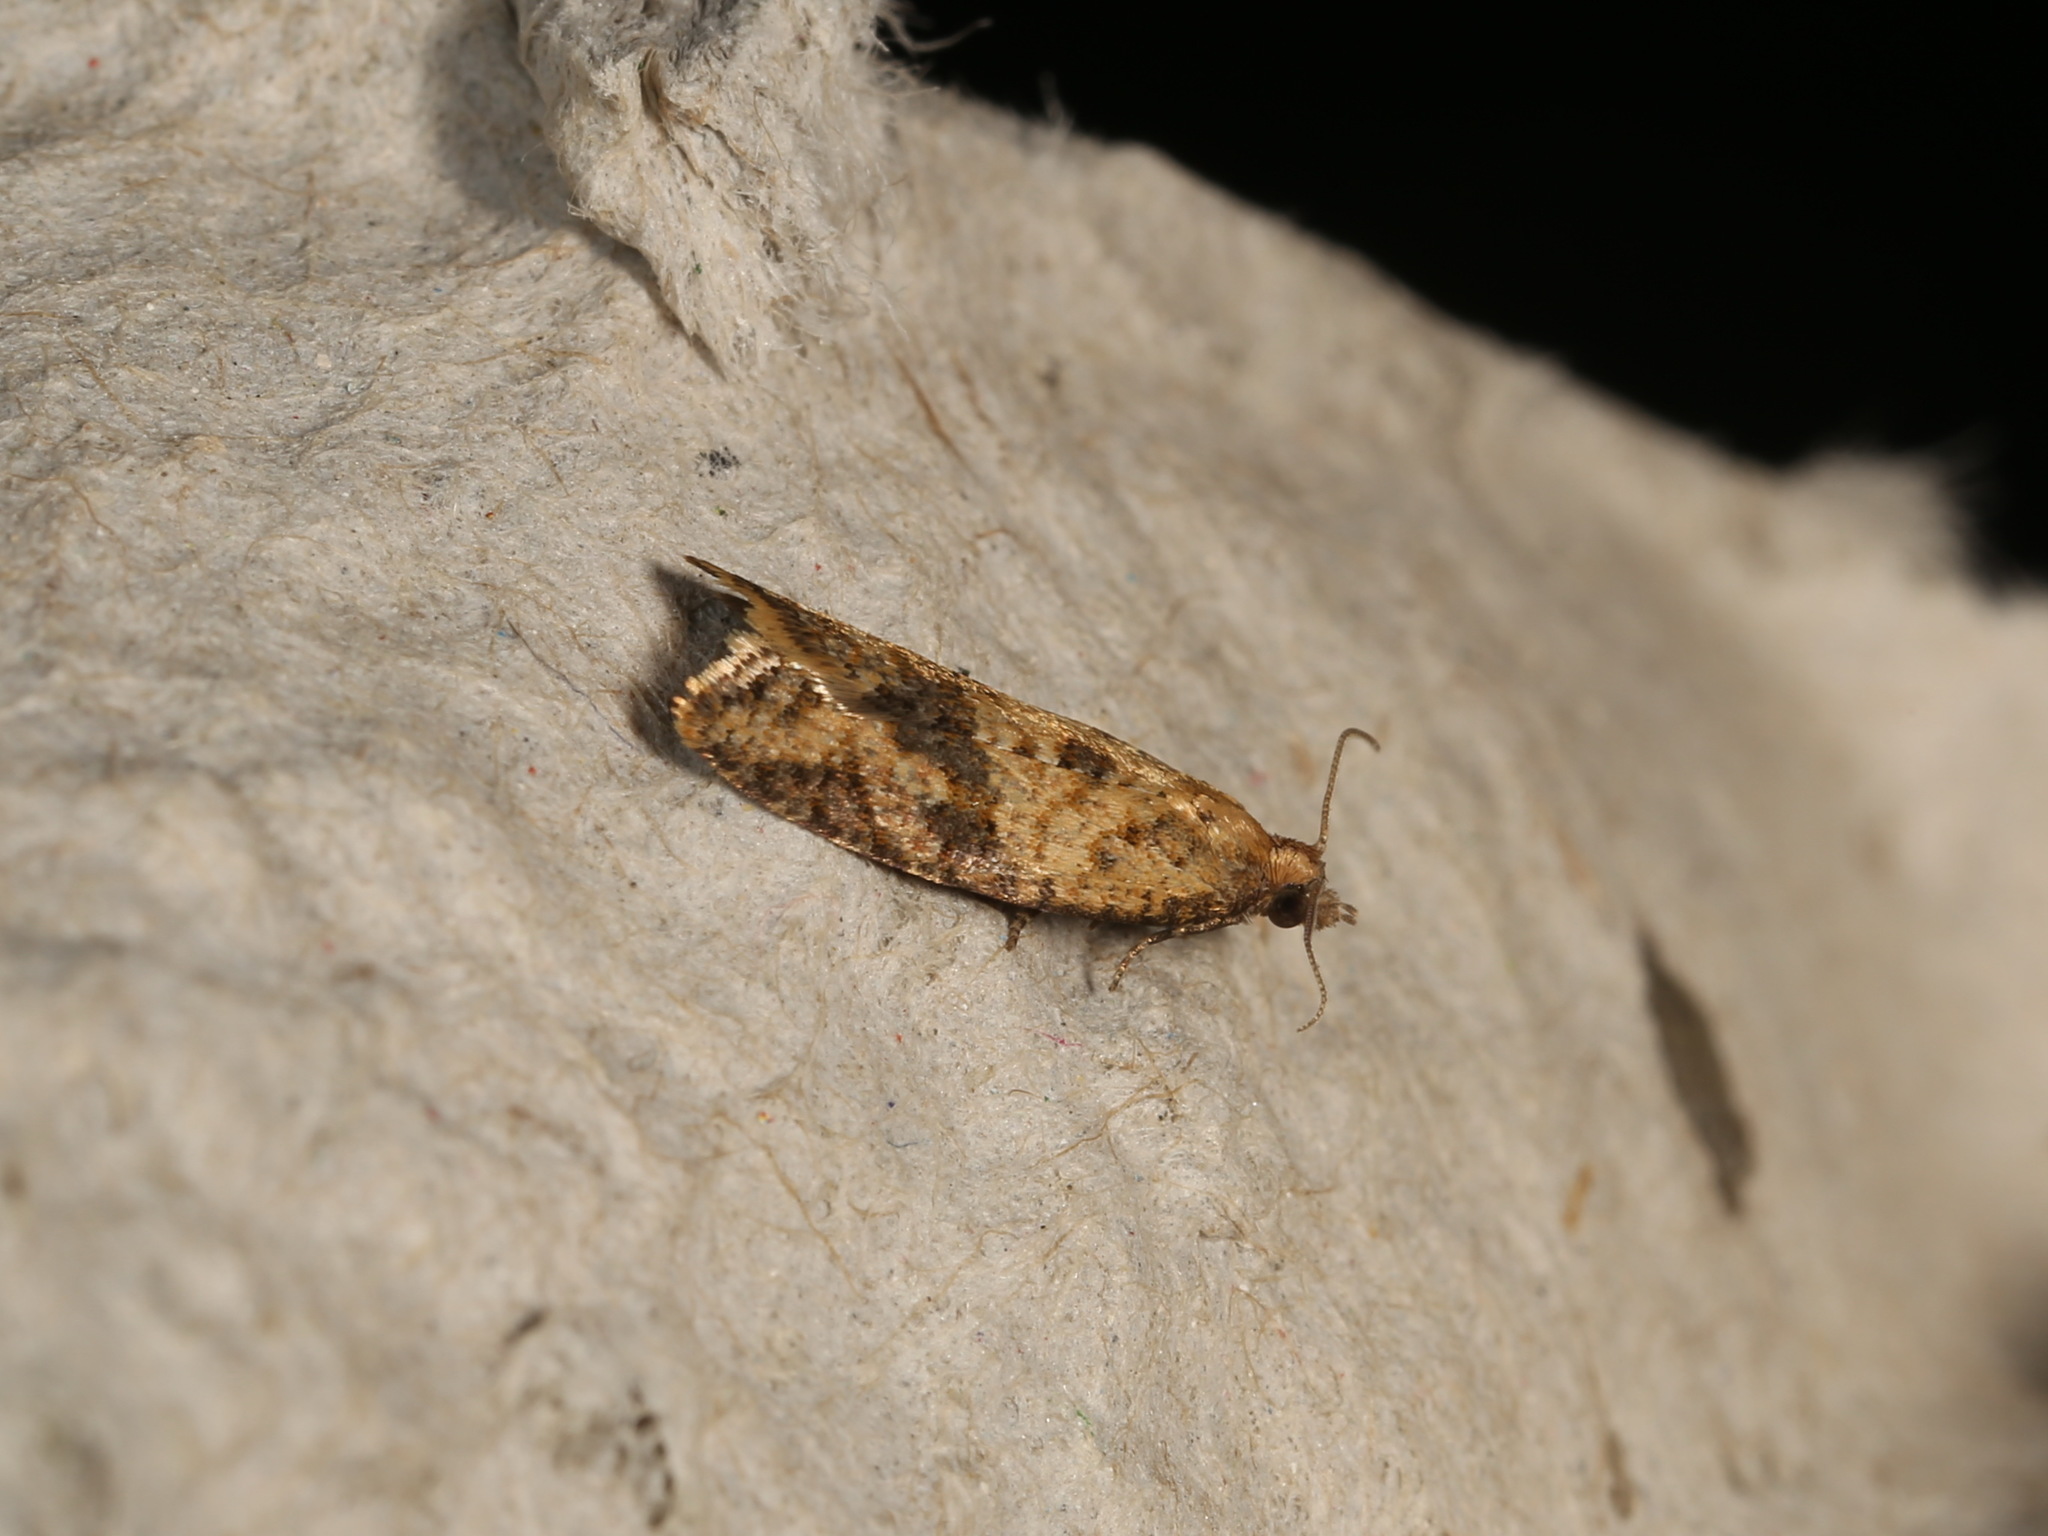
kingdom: Animalia
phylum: Arthropoda
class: Insecta
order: Lepidoptera
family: Tortricidae
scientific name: Tortricidae
